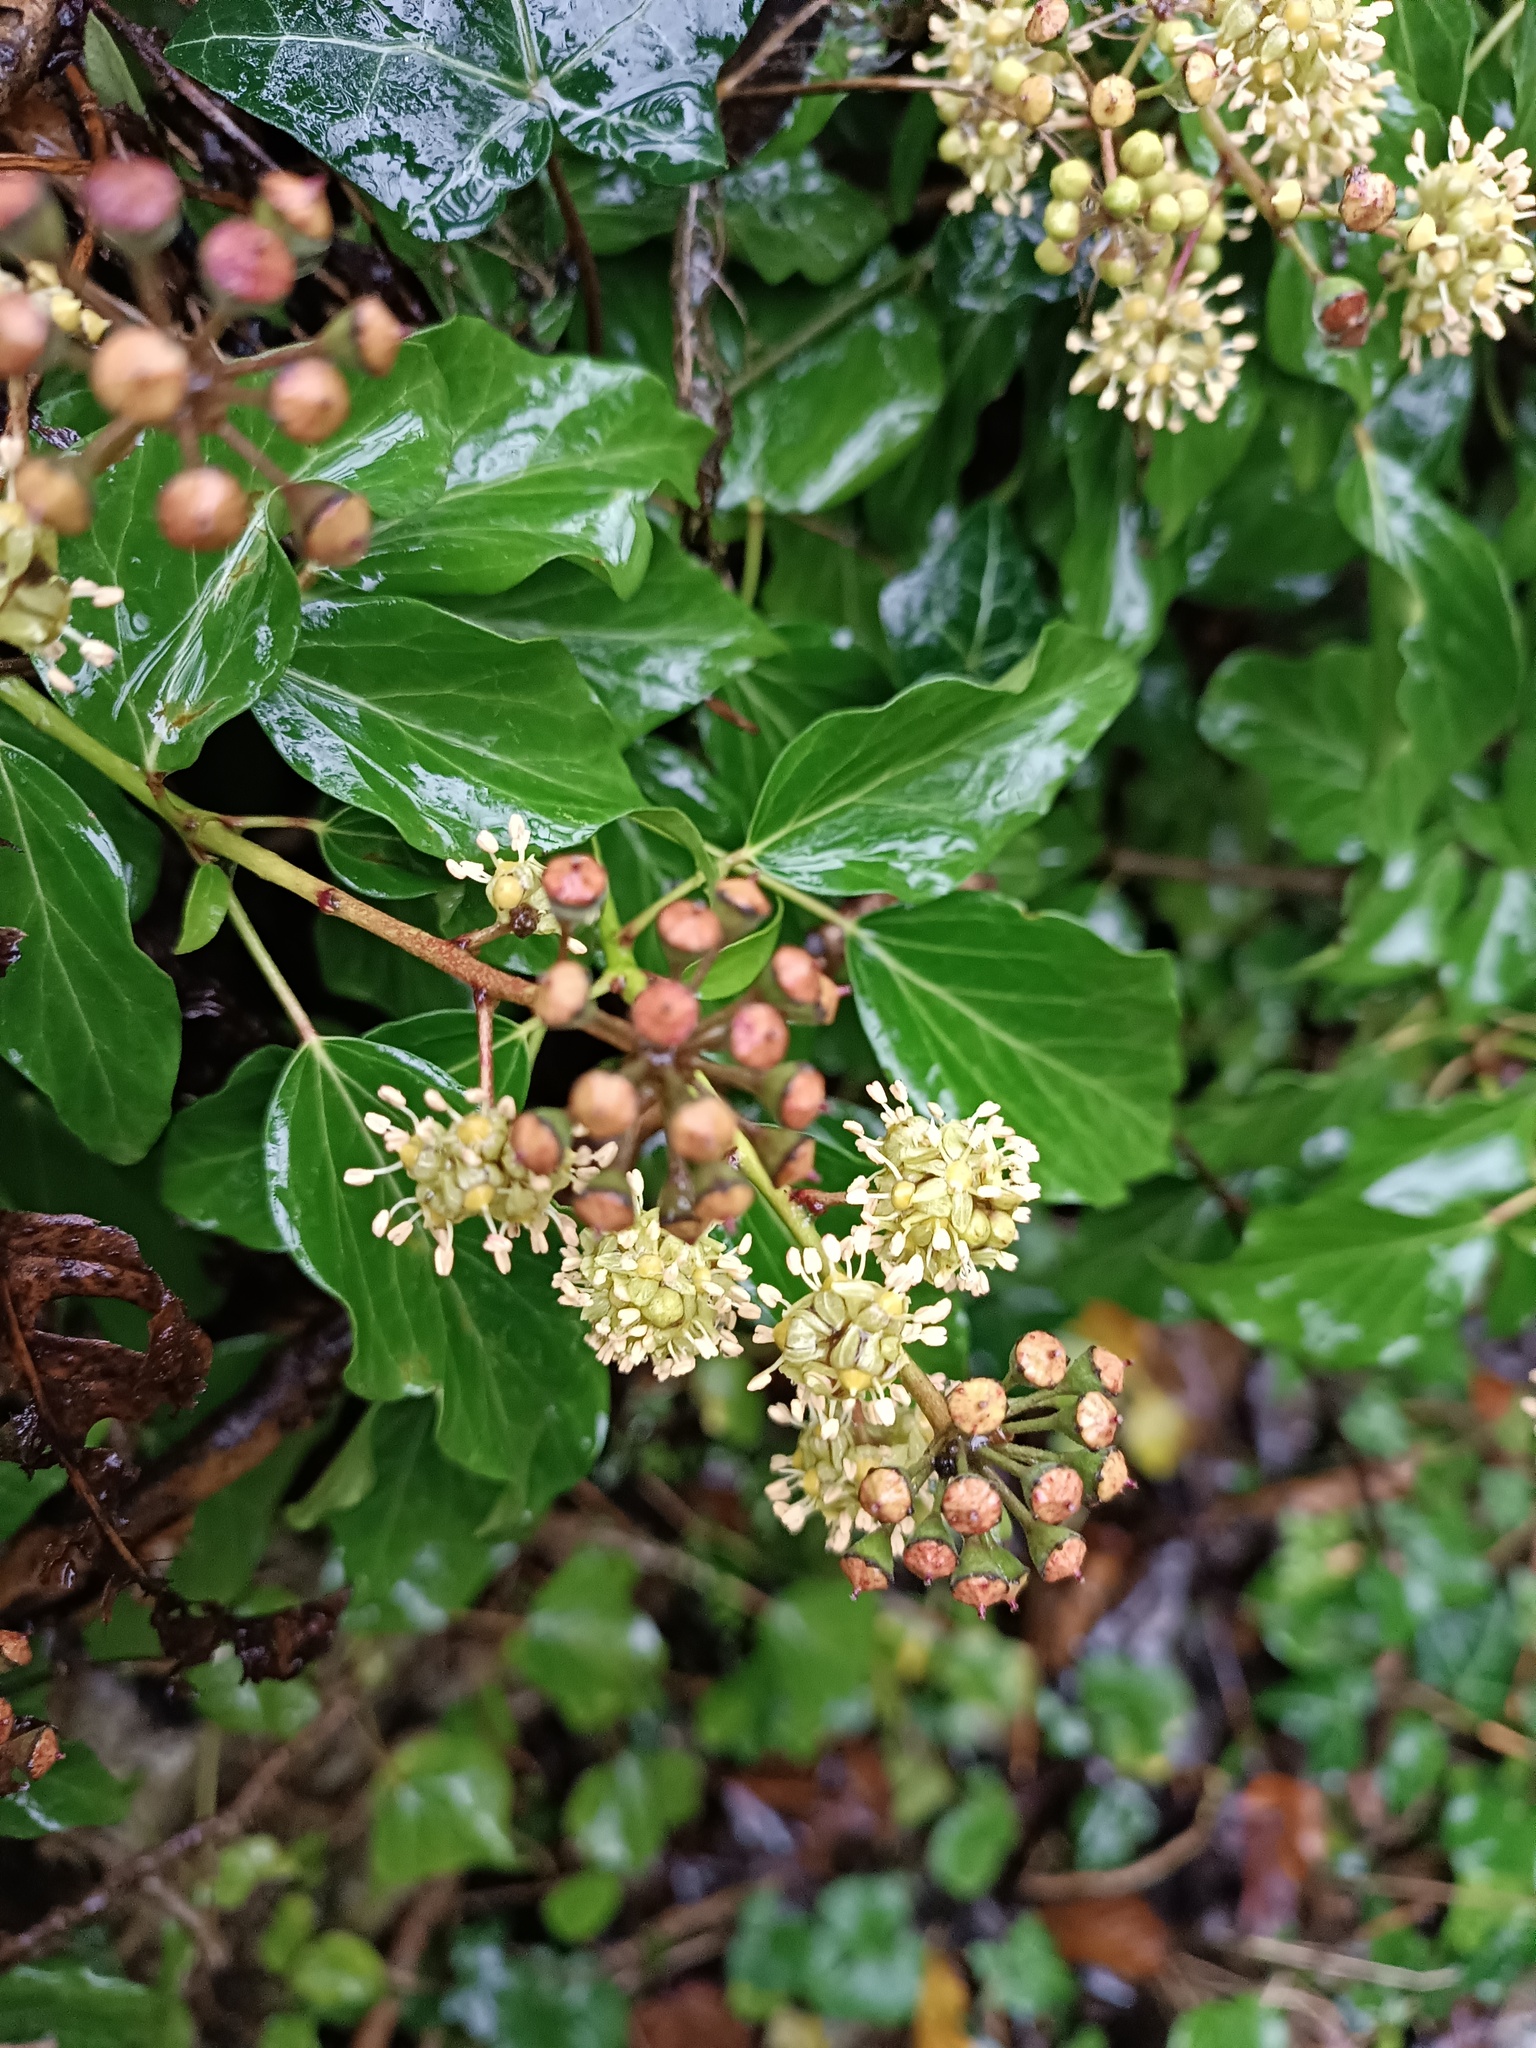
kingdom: Plantae
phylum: Tracheophyta
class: Magnoliopsida
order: Apiales
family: Araliaceae
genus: Hedera
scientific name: Hedera helix
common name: Ivy
